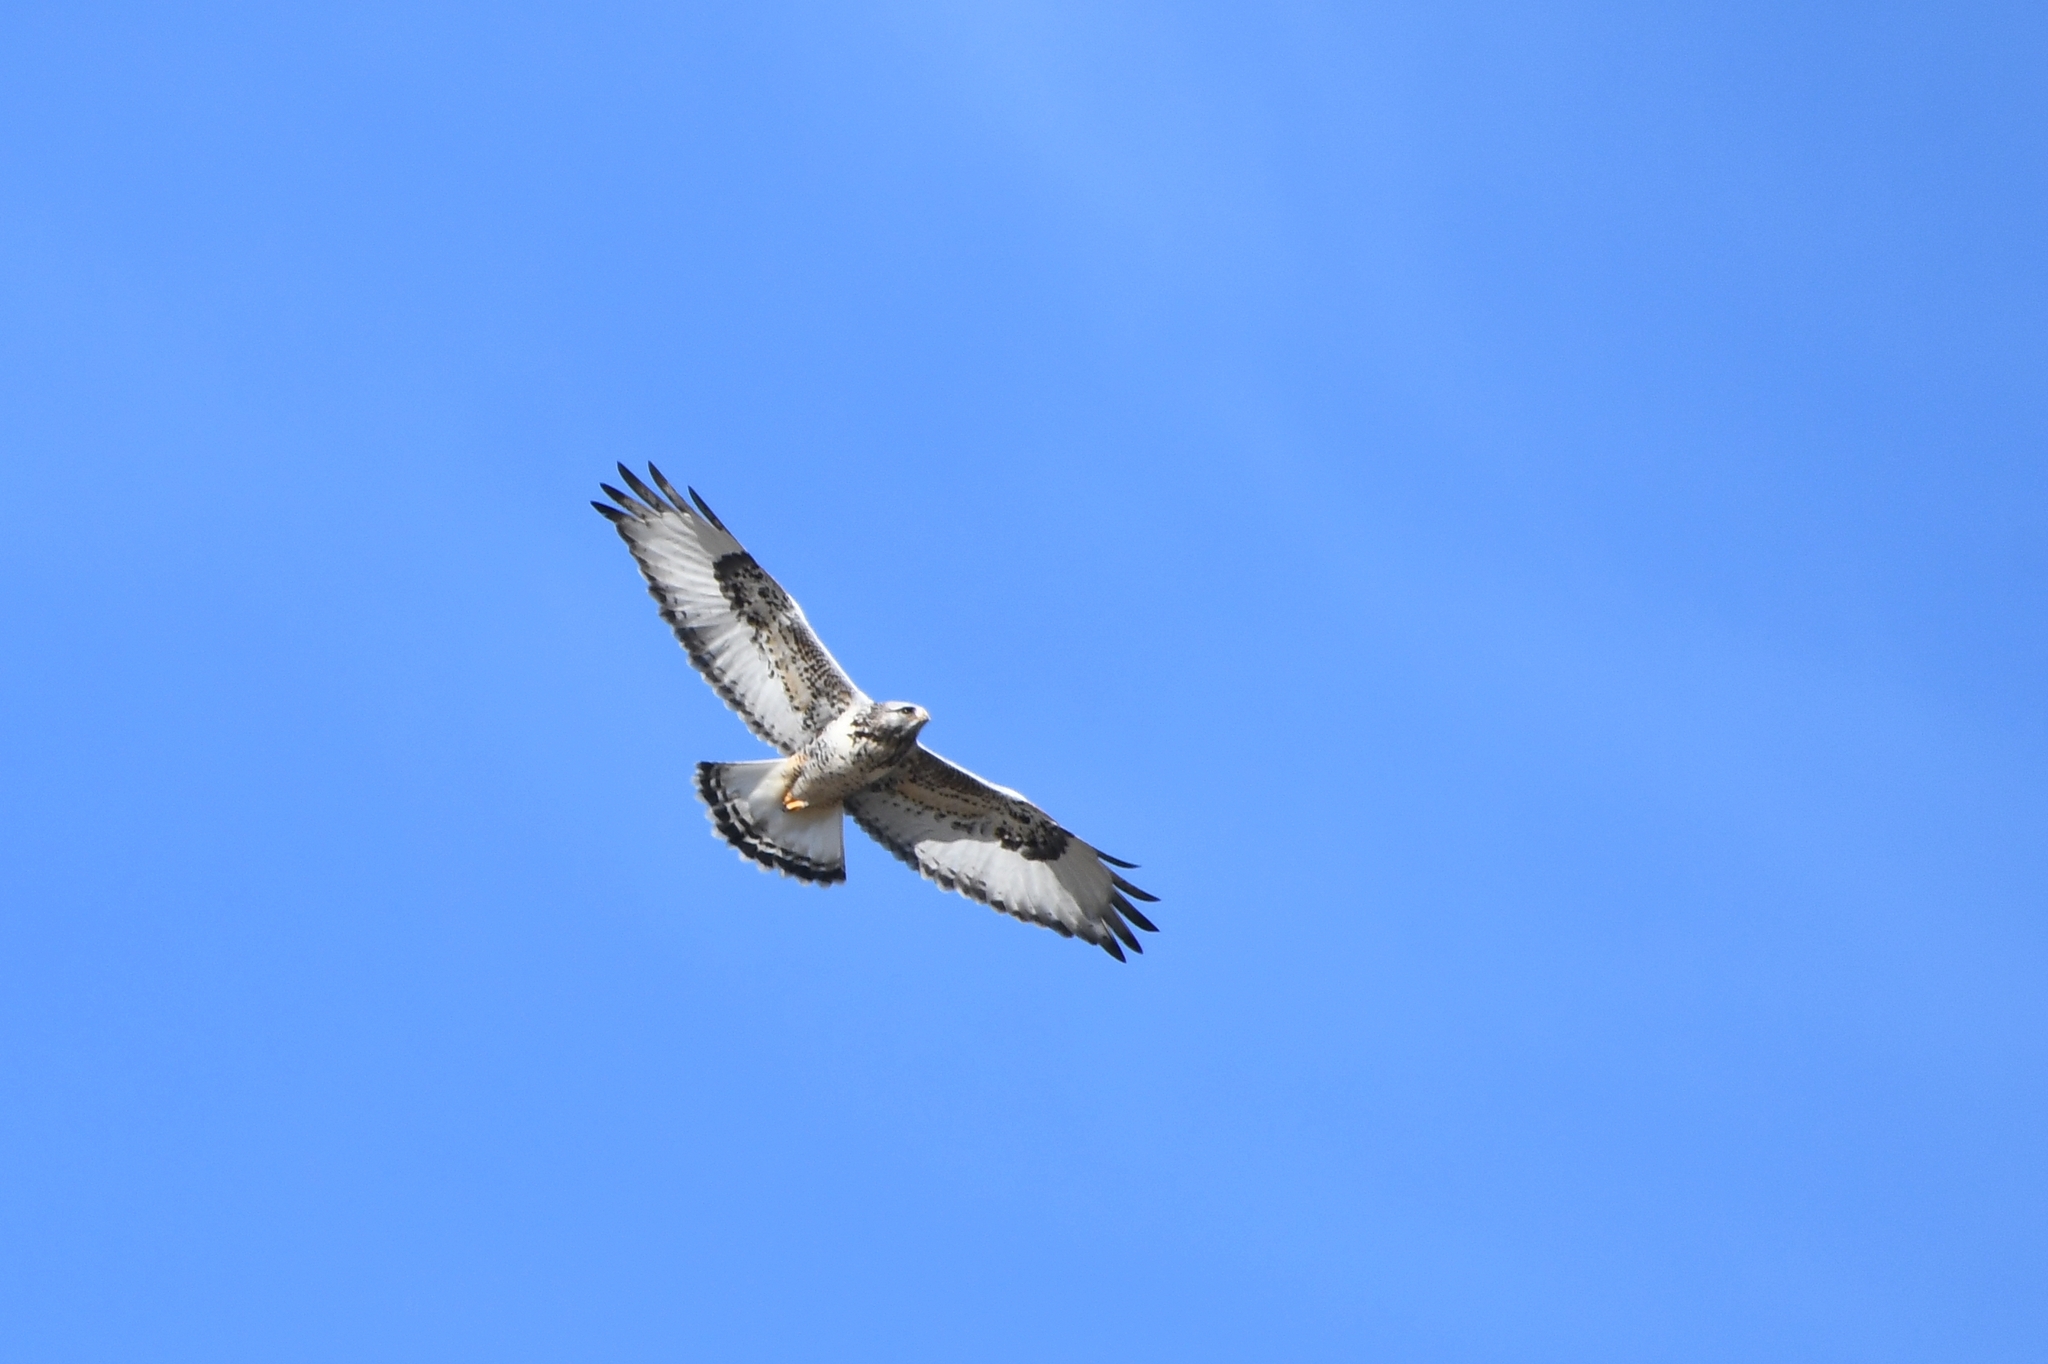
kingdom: Animalia
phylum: Chordata
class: Aves
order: Accipitriformes
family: Accipitridae
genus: Buteo
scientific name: Buteo lagopus
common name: Rough-legged buzzard
